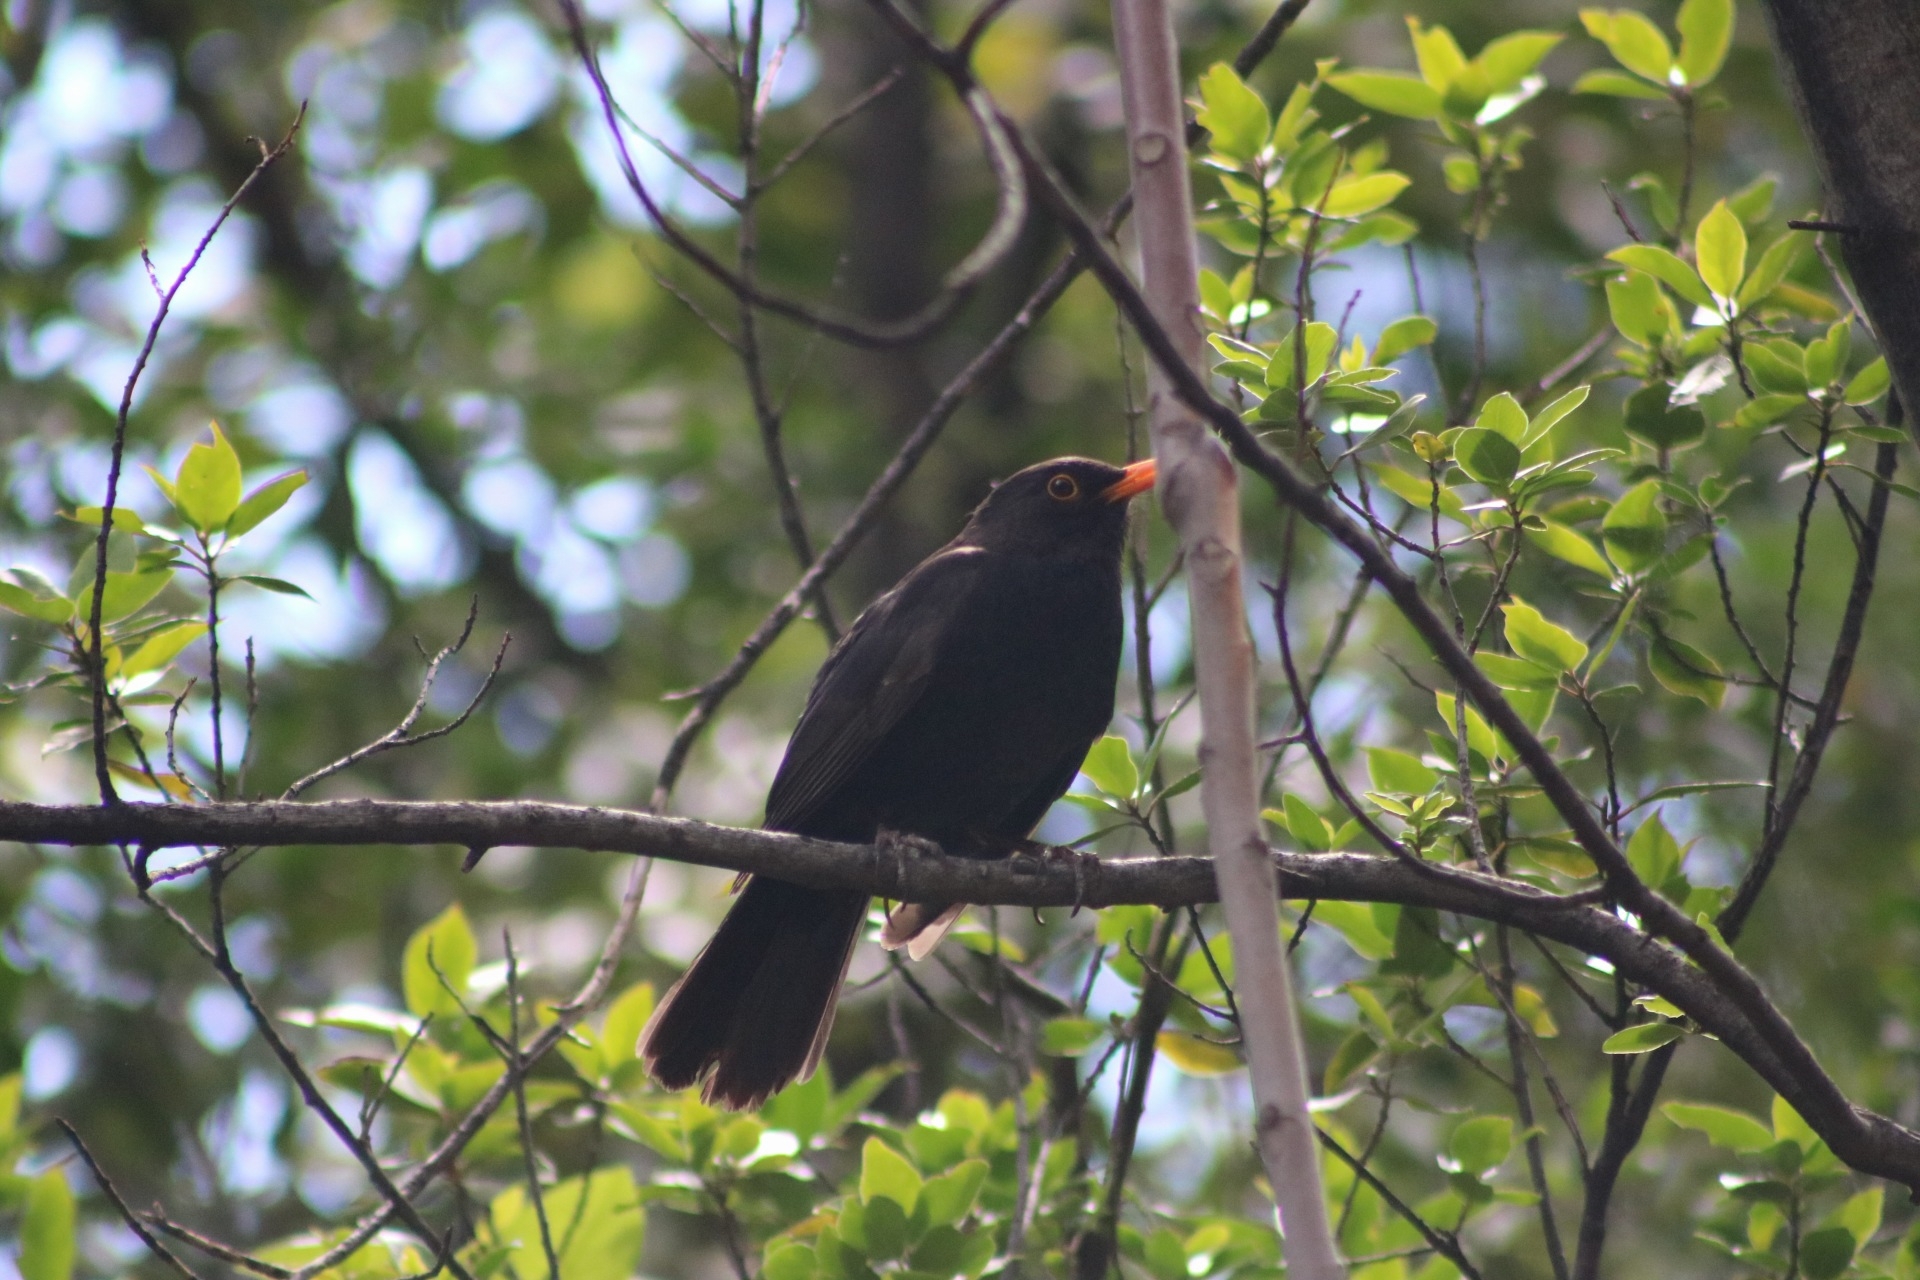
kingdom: Animalia
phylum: Chordata
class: Aves
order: Passeriformes
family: Turdidae
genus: Turdus
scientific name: Turdus merula
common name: Common blackbird
